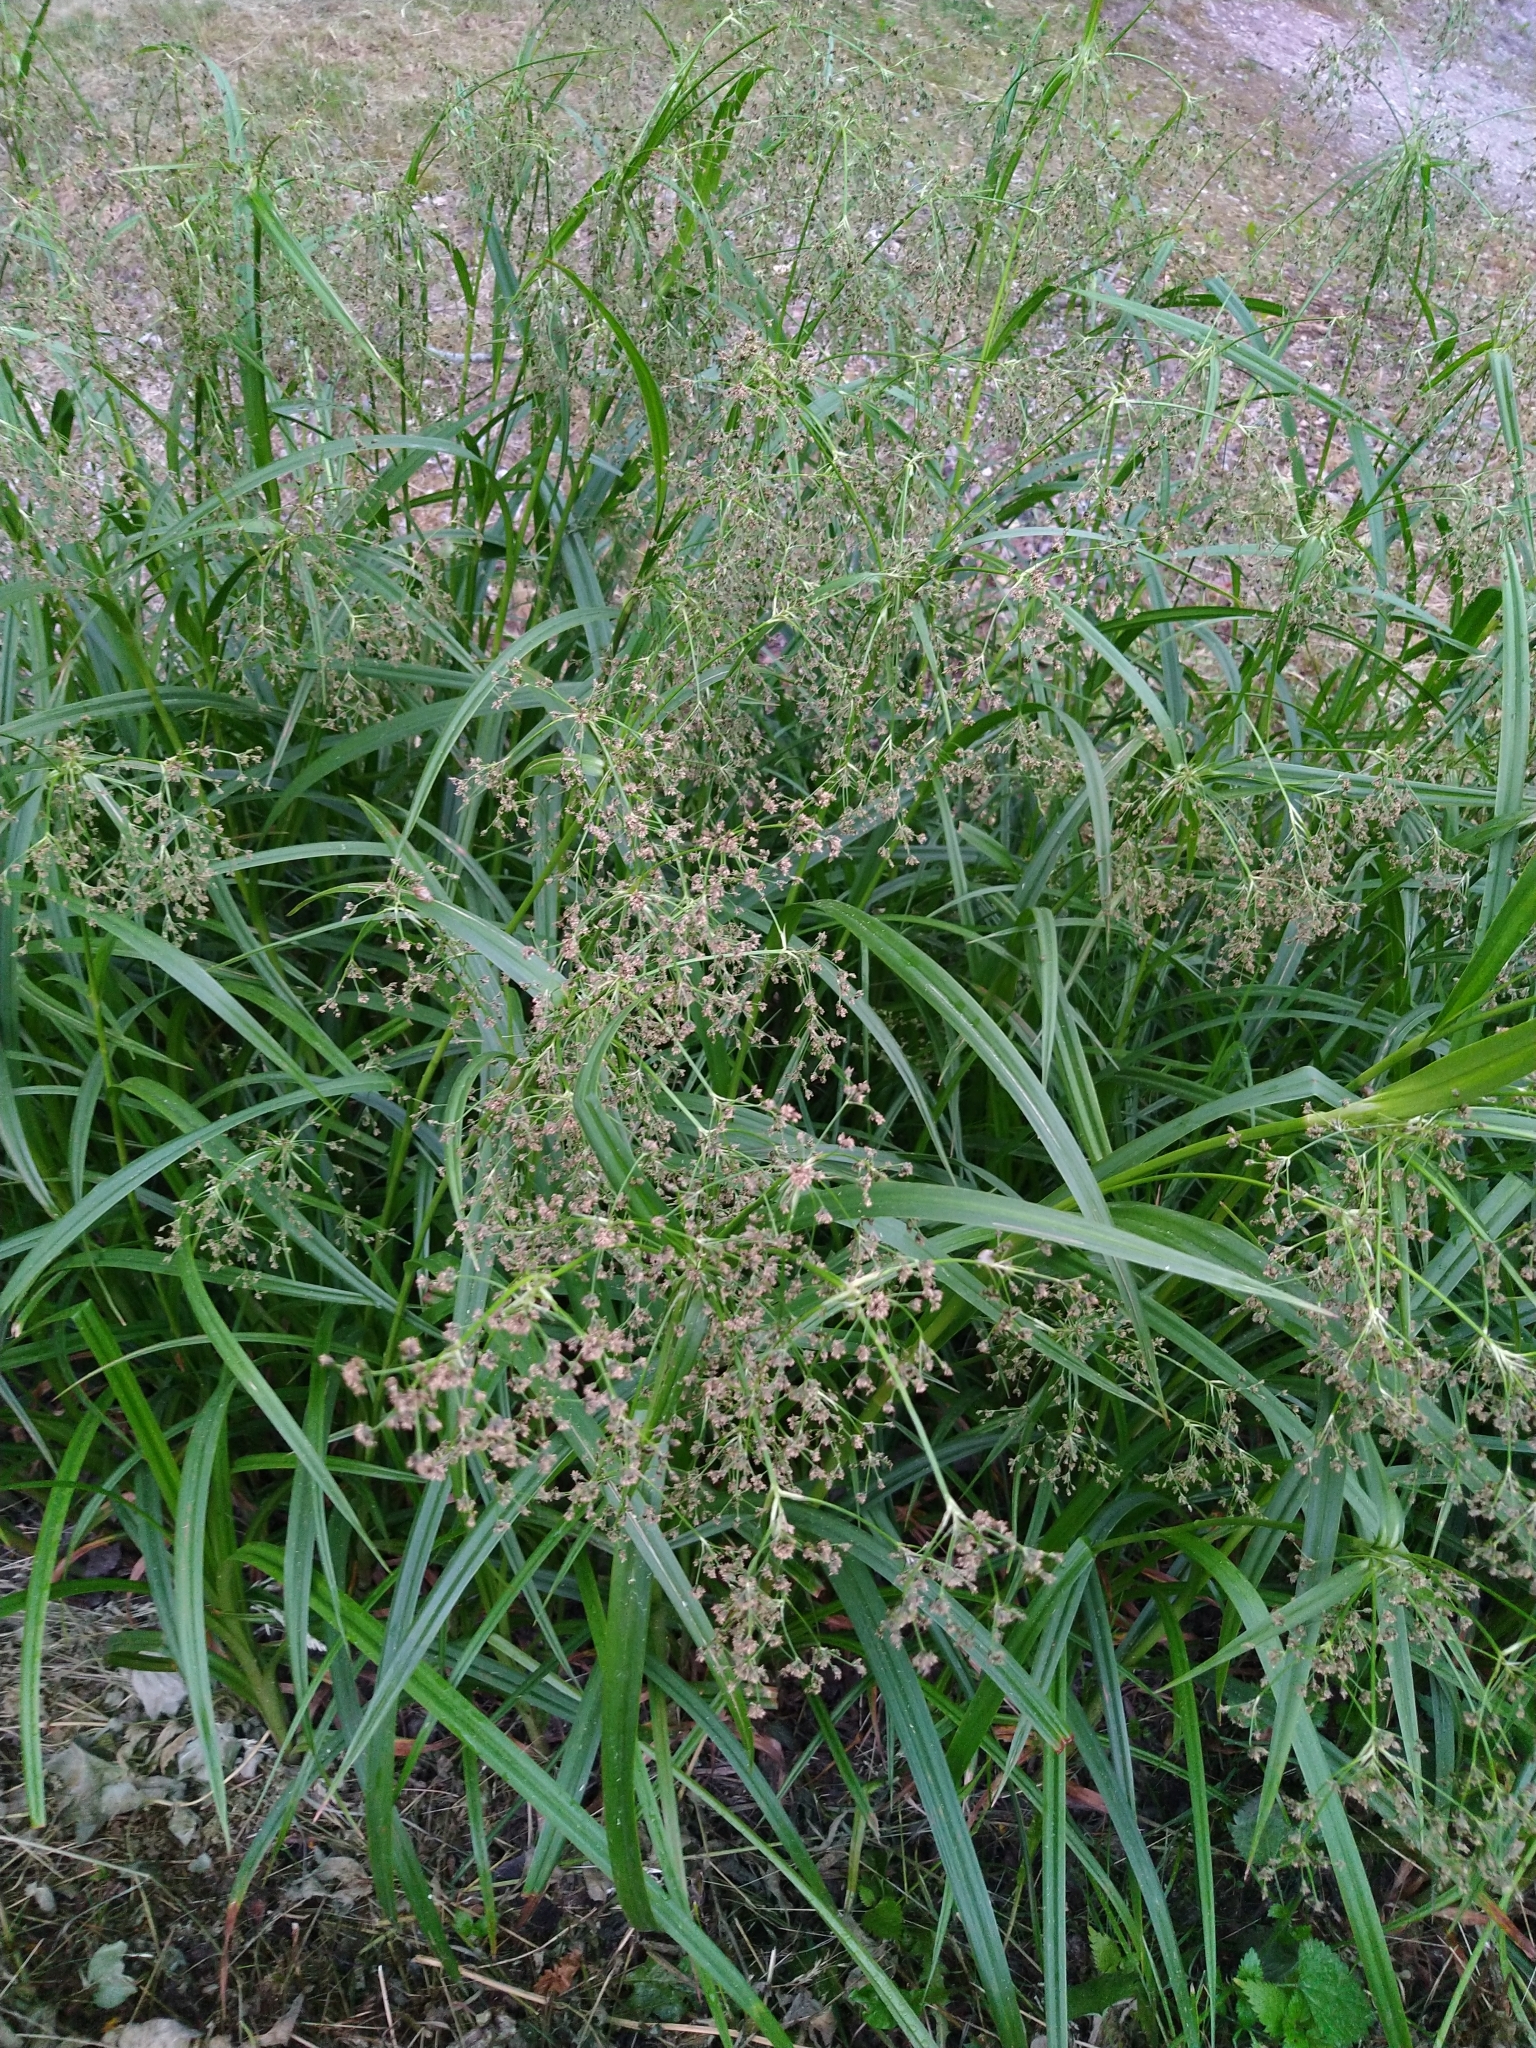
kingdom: Plantae
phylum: Tracheophyta
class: Liliopsida
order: Poales
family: Cyperaceae
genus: Scirpus
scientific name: Scirpus sylvaticus
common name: Wood club-rush
